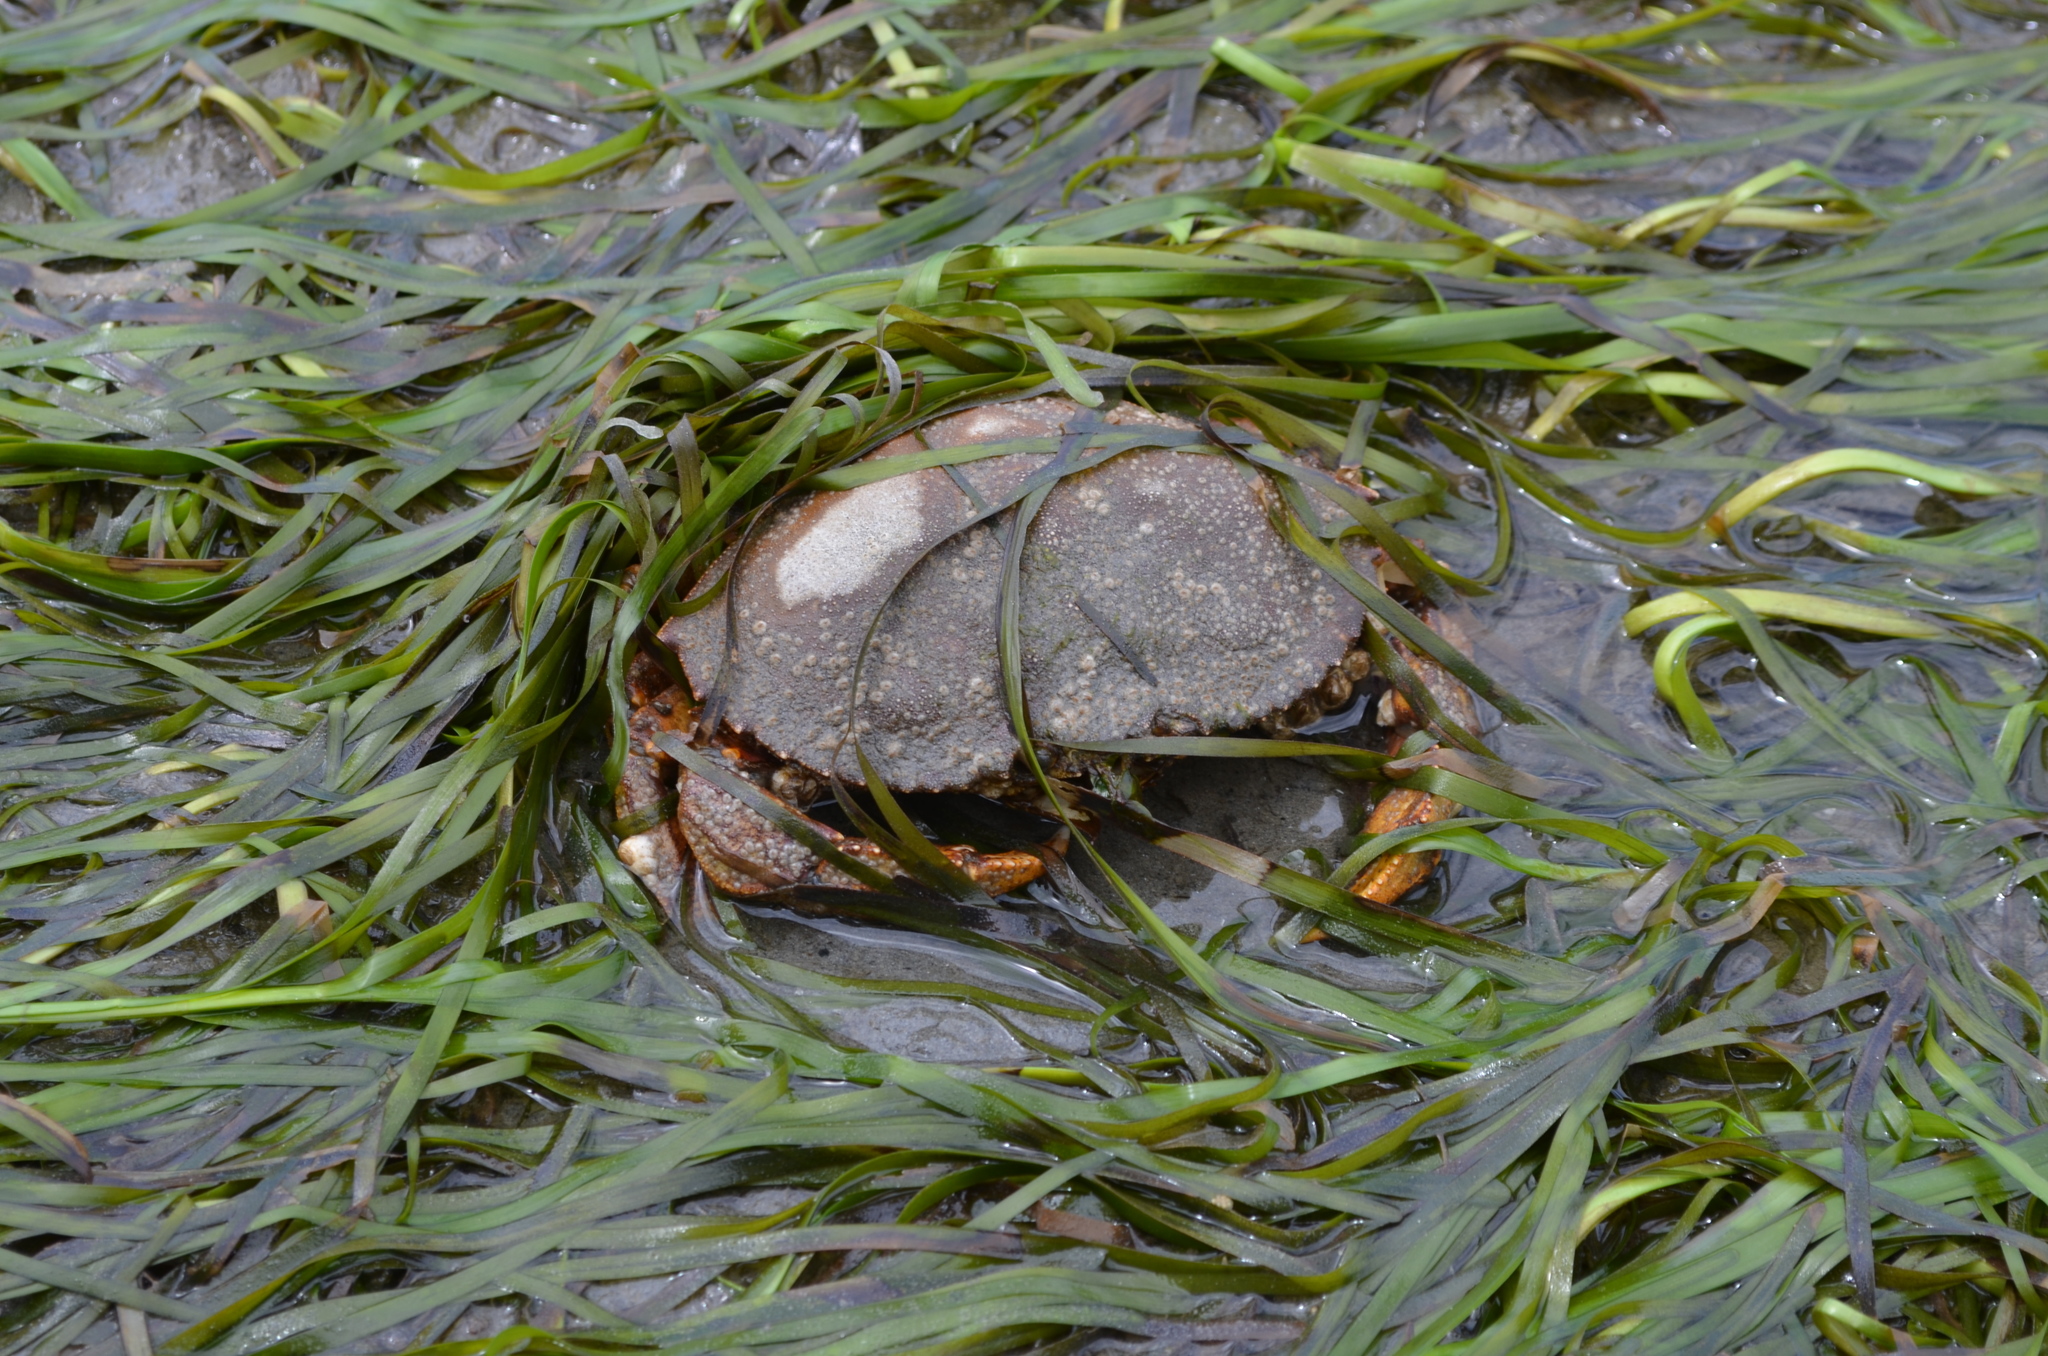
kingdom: Animalia
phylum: Arthropoda
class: Malacostraca
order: Decapoda
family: Cancridae
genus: Metacarcinus
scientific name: Metacarcinus magister
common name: Californian crab
